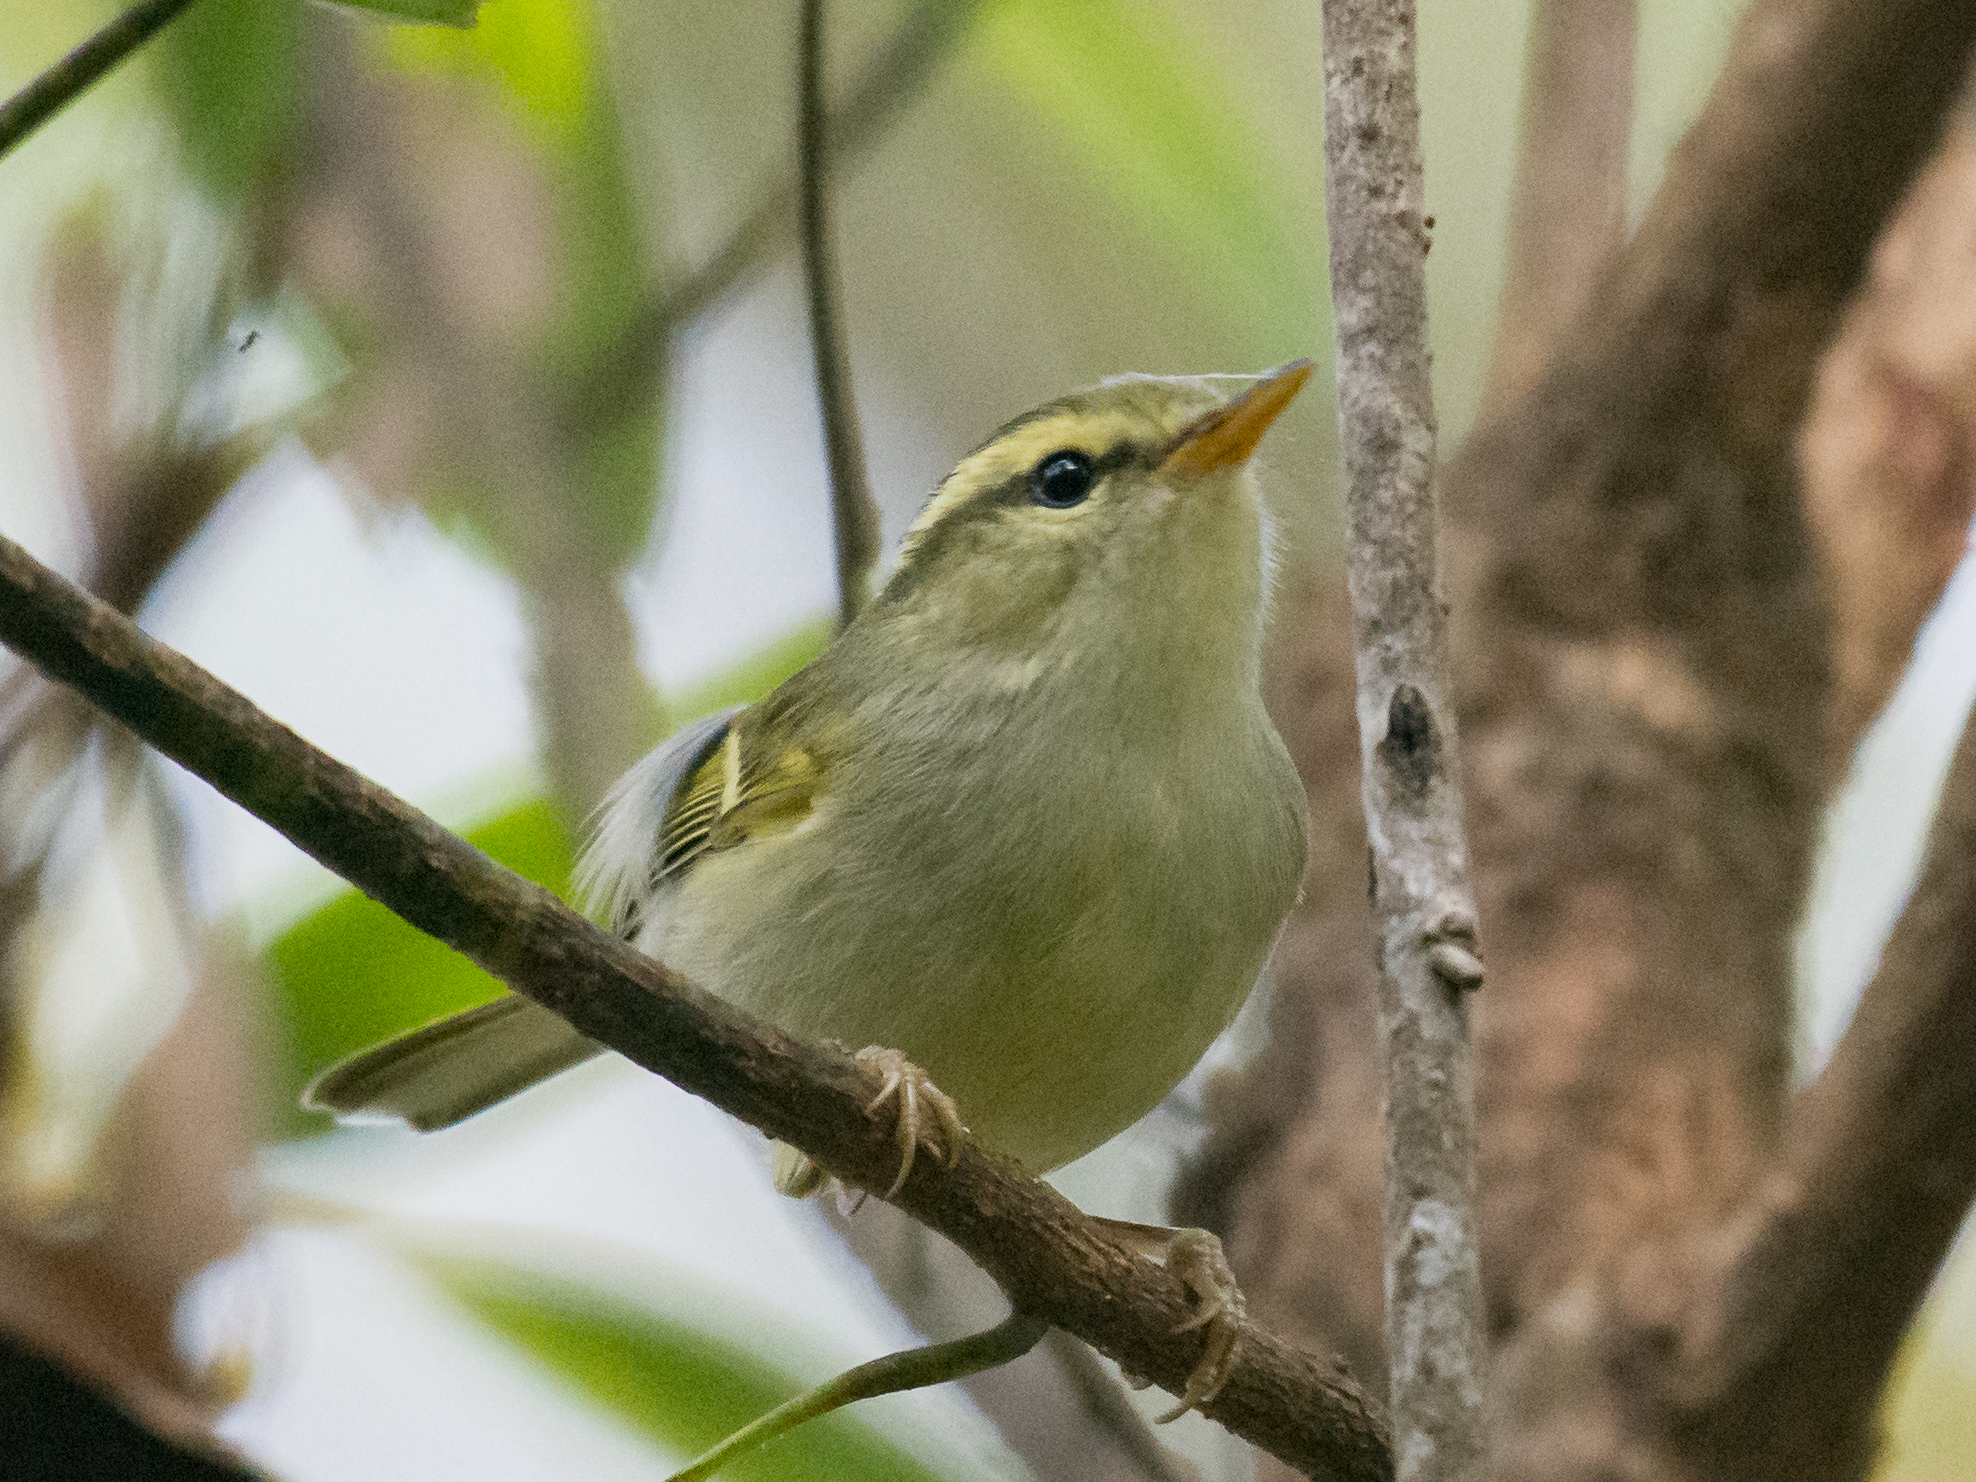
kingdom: Animalia
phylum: Chordata
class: Aves
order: Passeriformes
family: Phylloscopidae
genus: Phylloscopus
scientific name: Phylloscopus intensior
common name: Davison's leaf warbler
